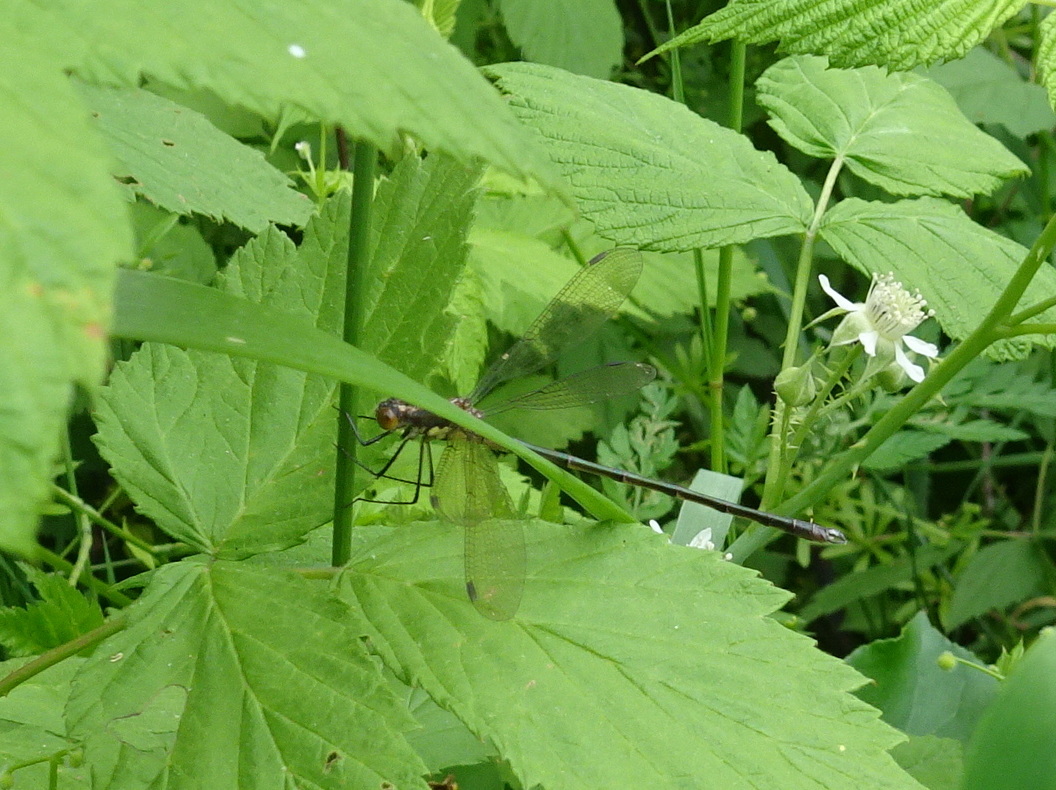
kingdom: Animalia
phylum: Arthropoda
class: Insecta
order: Odonata
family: Lestidae
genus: Lestes
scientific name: Lestes eurinus
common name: Amber-winged spreadwing
